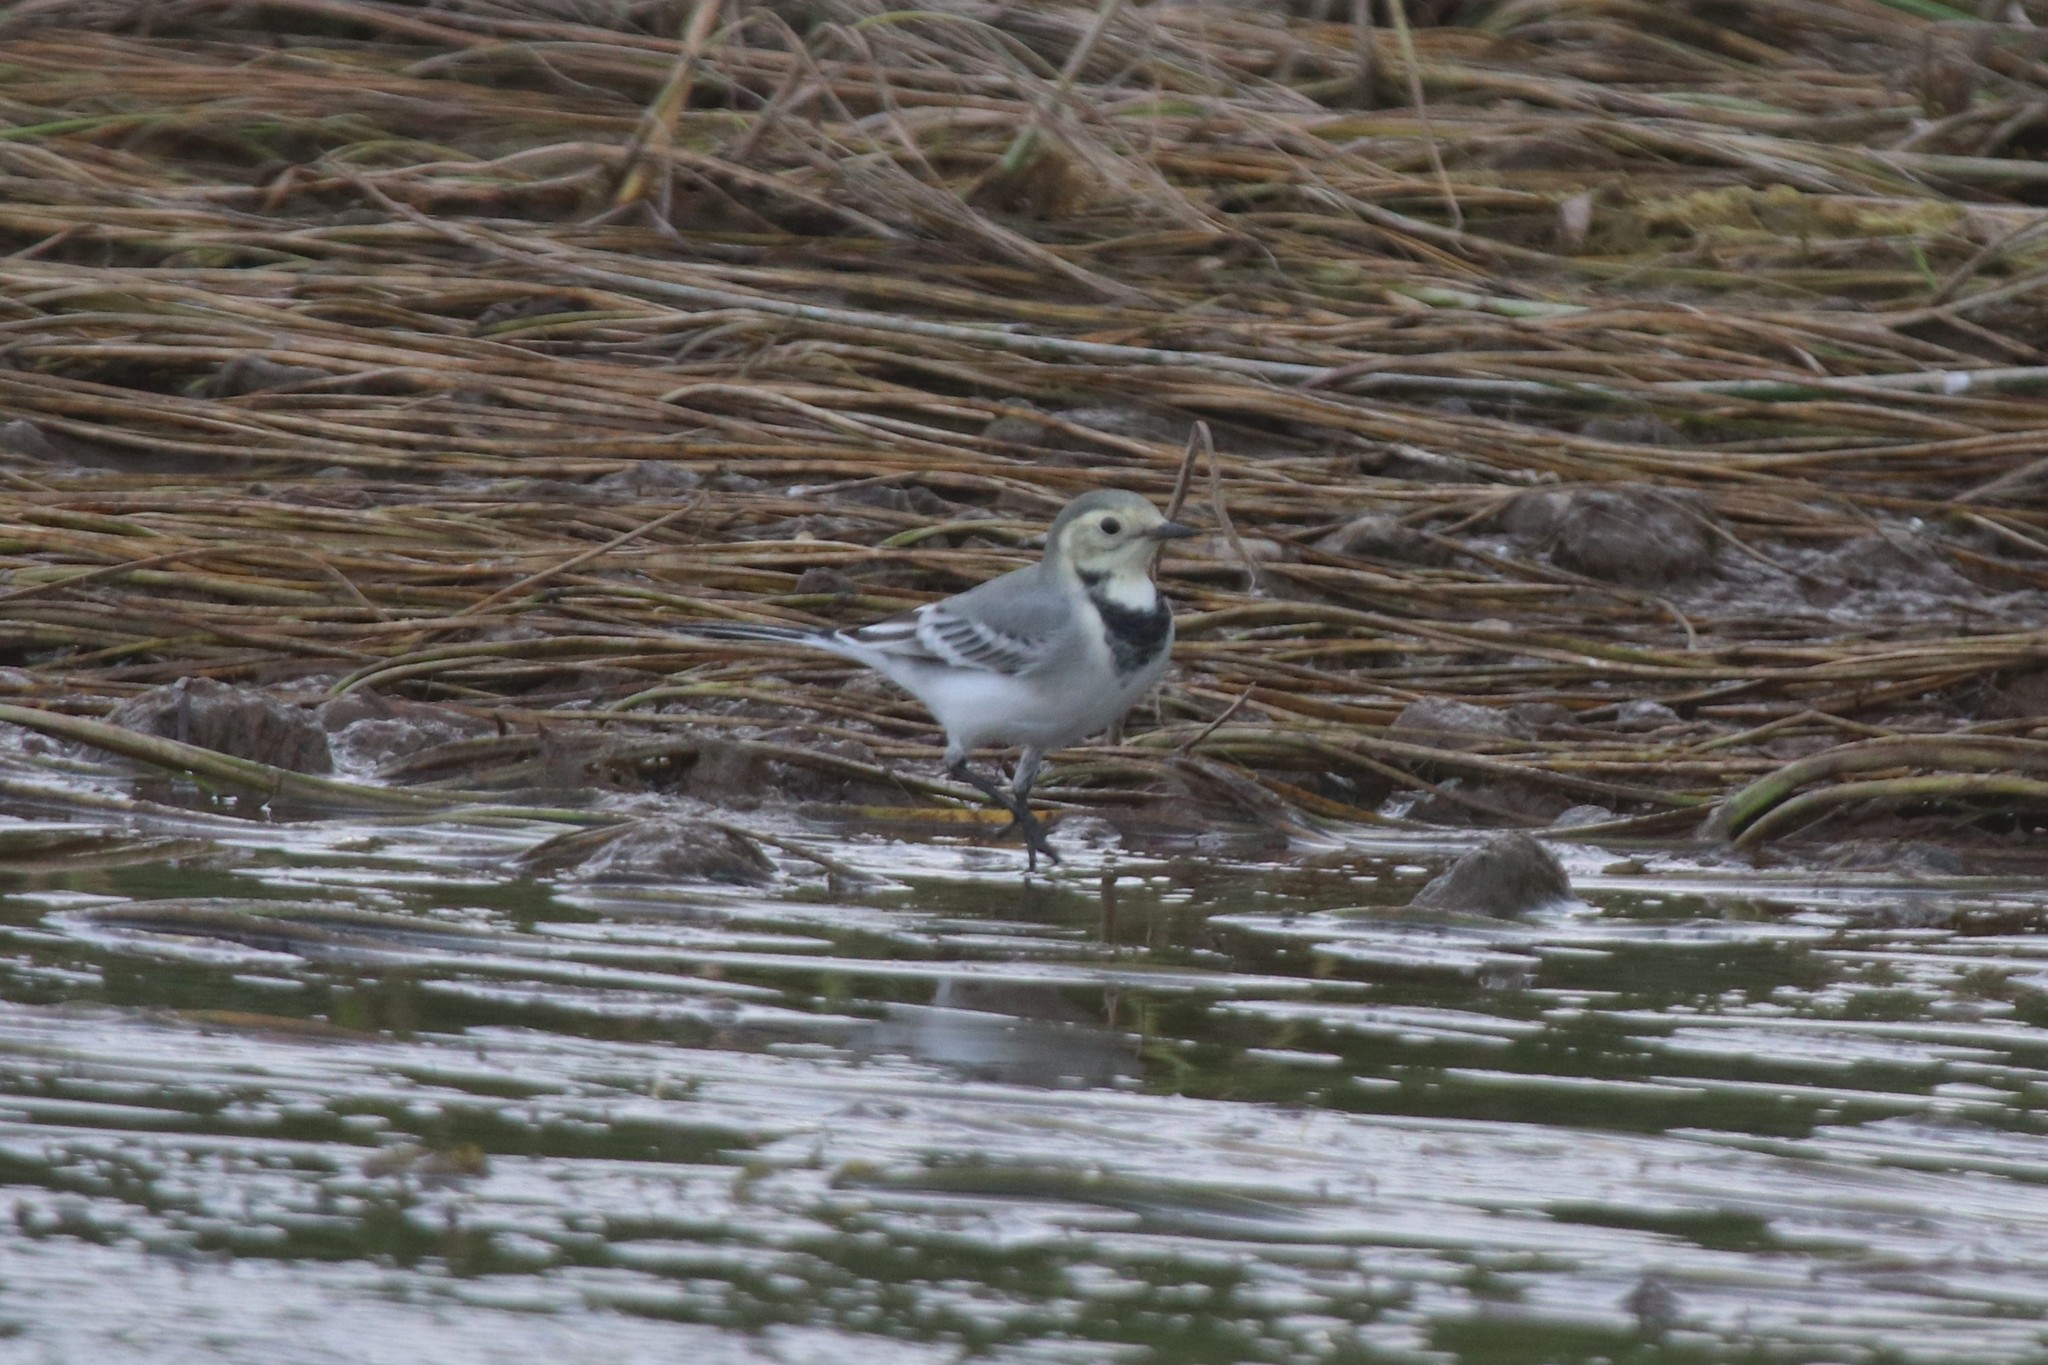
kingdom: Animalia
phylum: Chordata
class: Aves
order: Passeriformes
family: Motacillidae
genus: Motacilla
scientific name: Motacilla alba
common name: White wagtail
